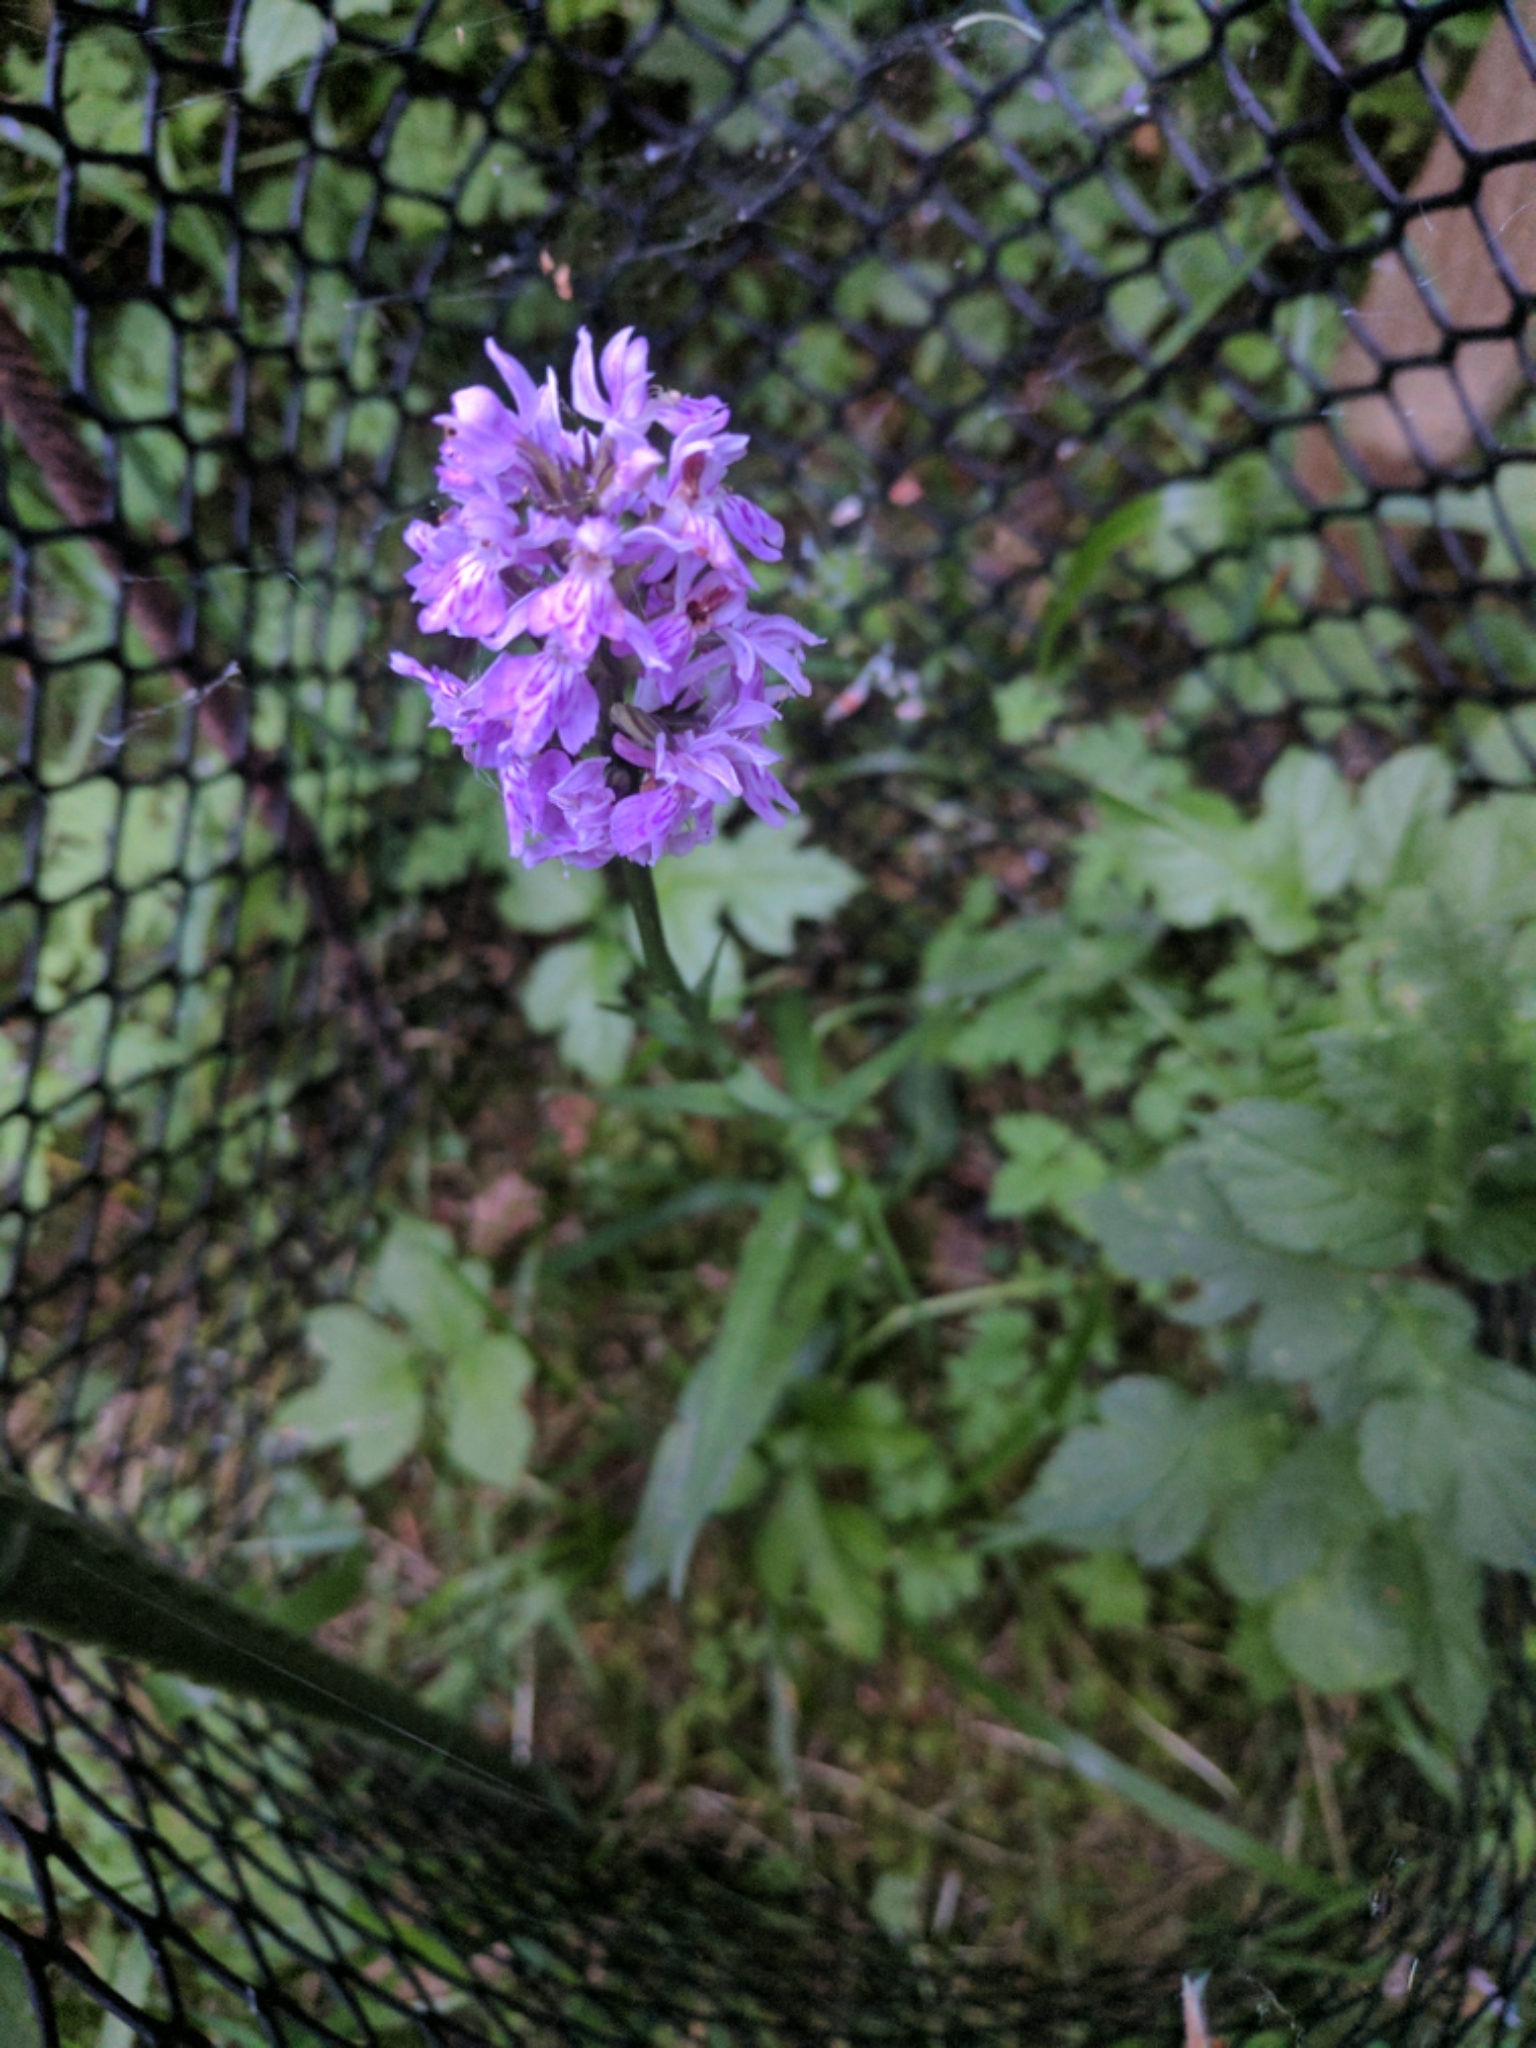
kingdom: Plantae
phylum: Tracheophyta
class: Liliopsida
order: Asparagales
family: Orchidaceae
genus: Dactylorhiza
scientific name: Dactylorhiza maculata
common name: Heath spotted-orchid
